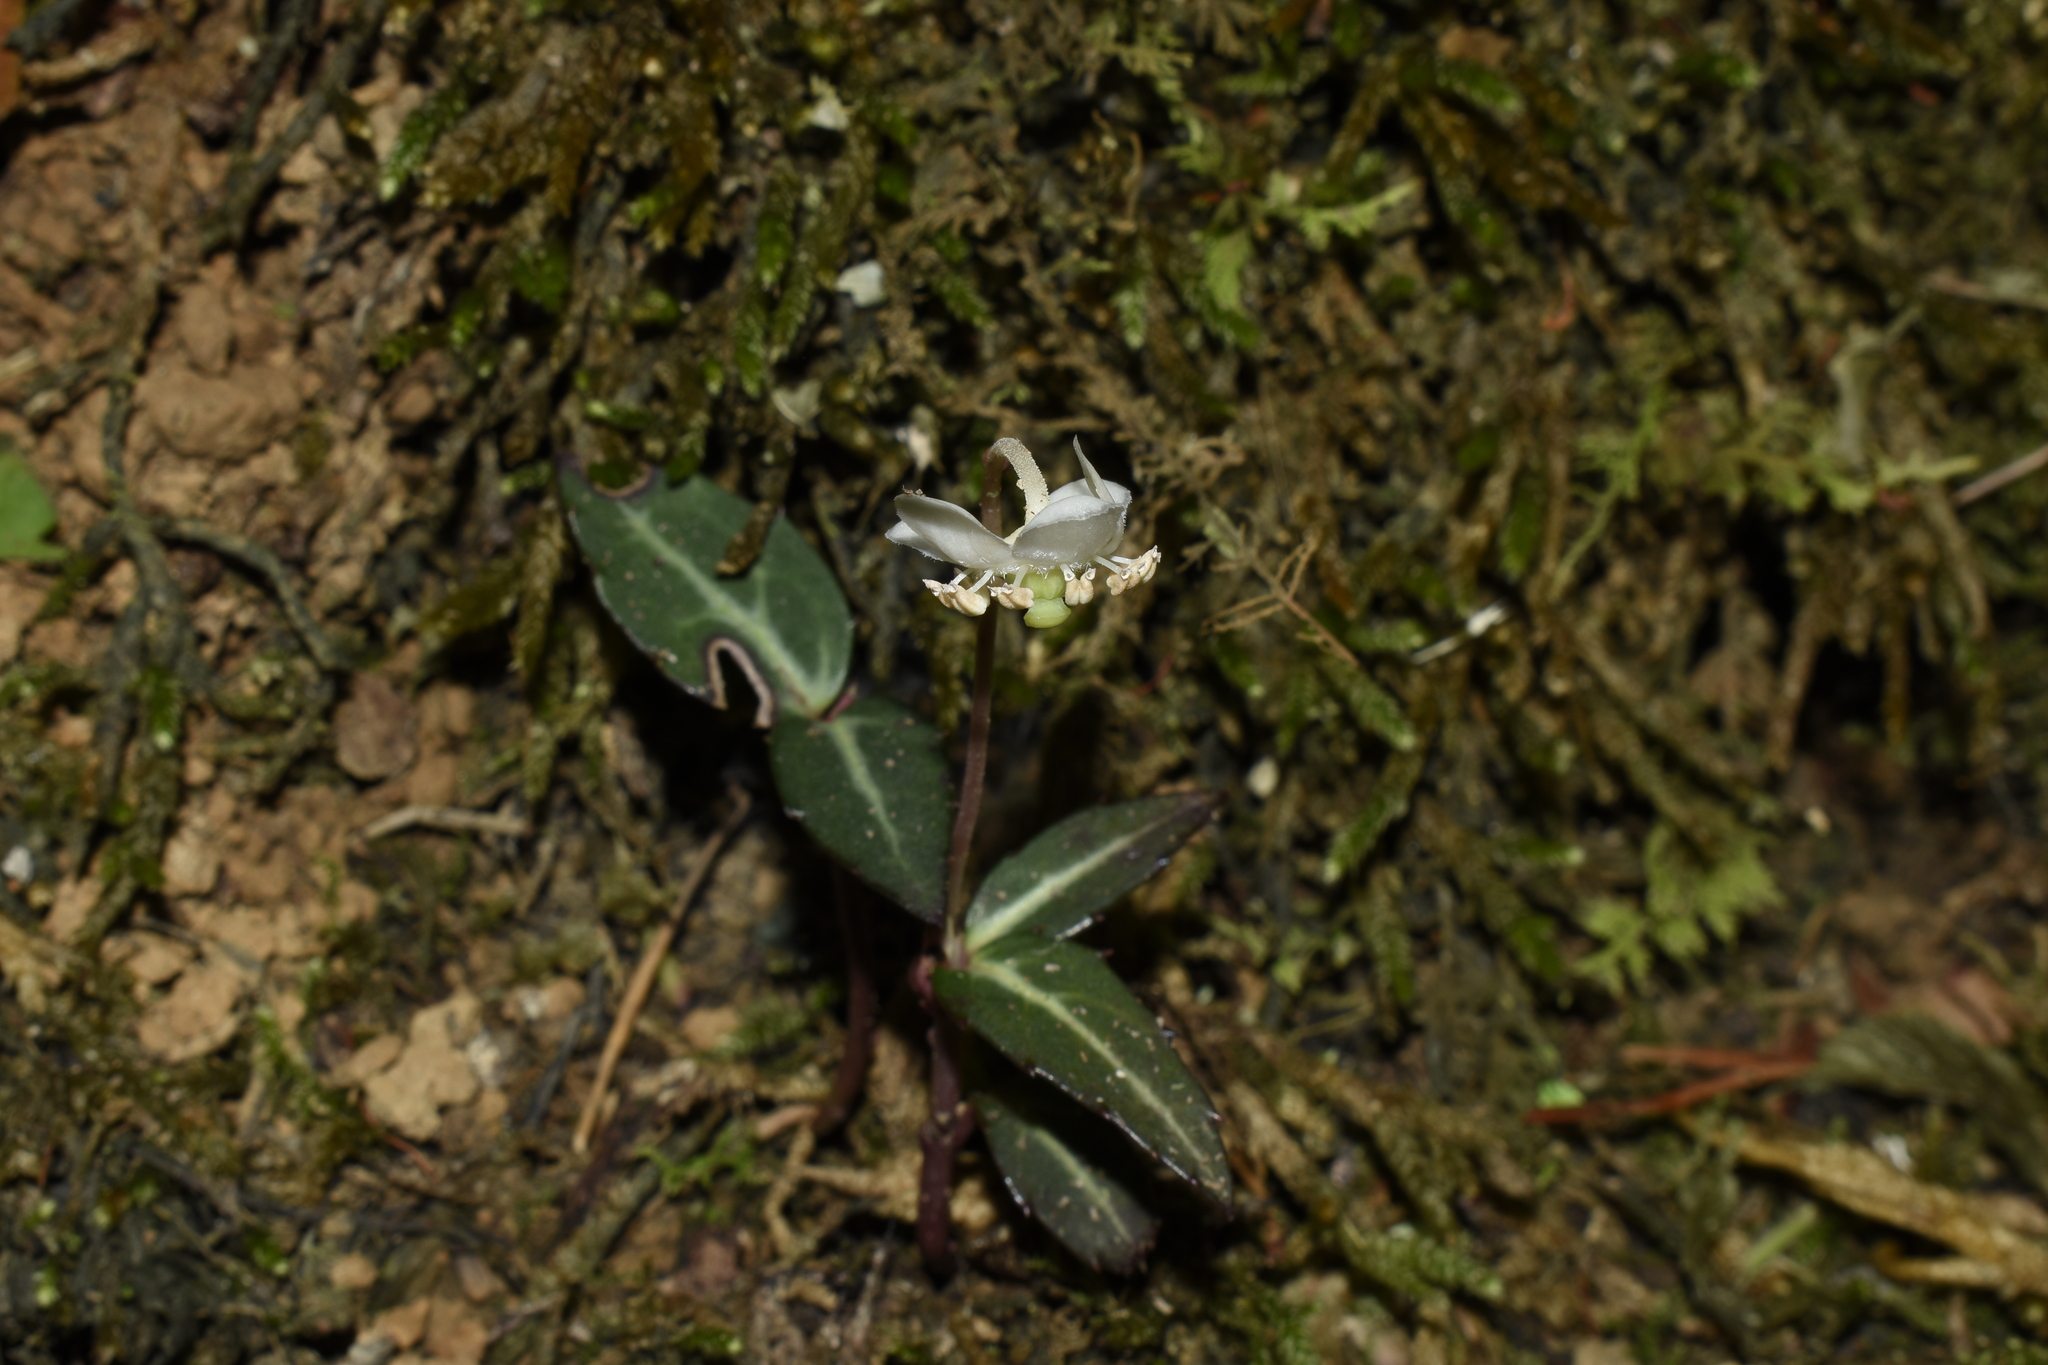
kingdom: Plantae
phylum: Tracheophyta
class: Magnoliopsida
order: Ericales
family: Ericaceae
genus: Chimaphila
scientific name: Chimaphila maculata
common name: Spotted pipsissewa
